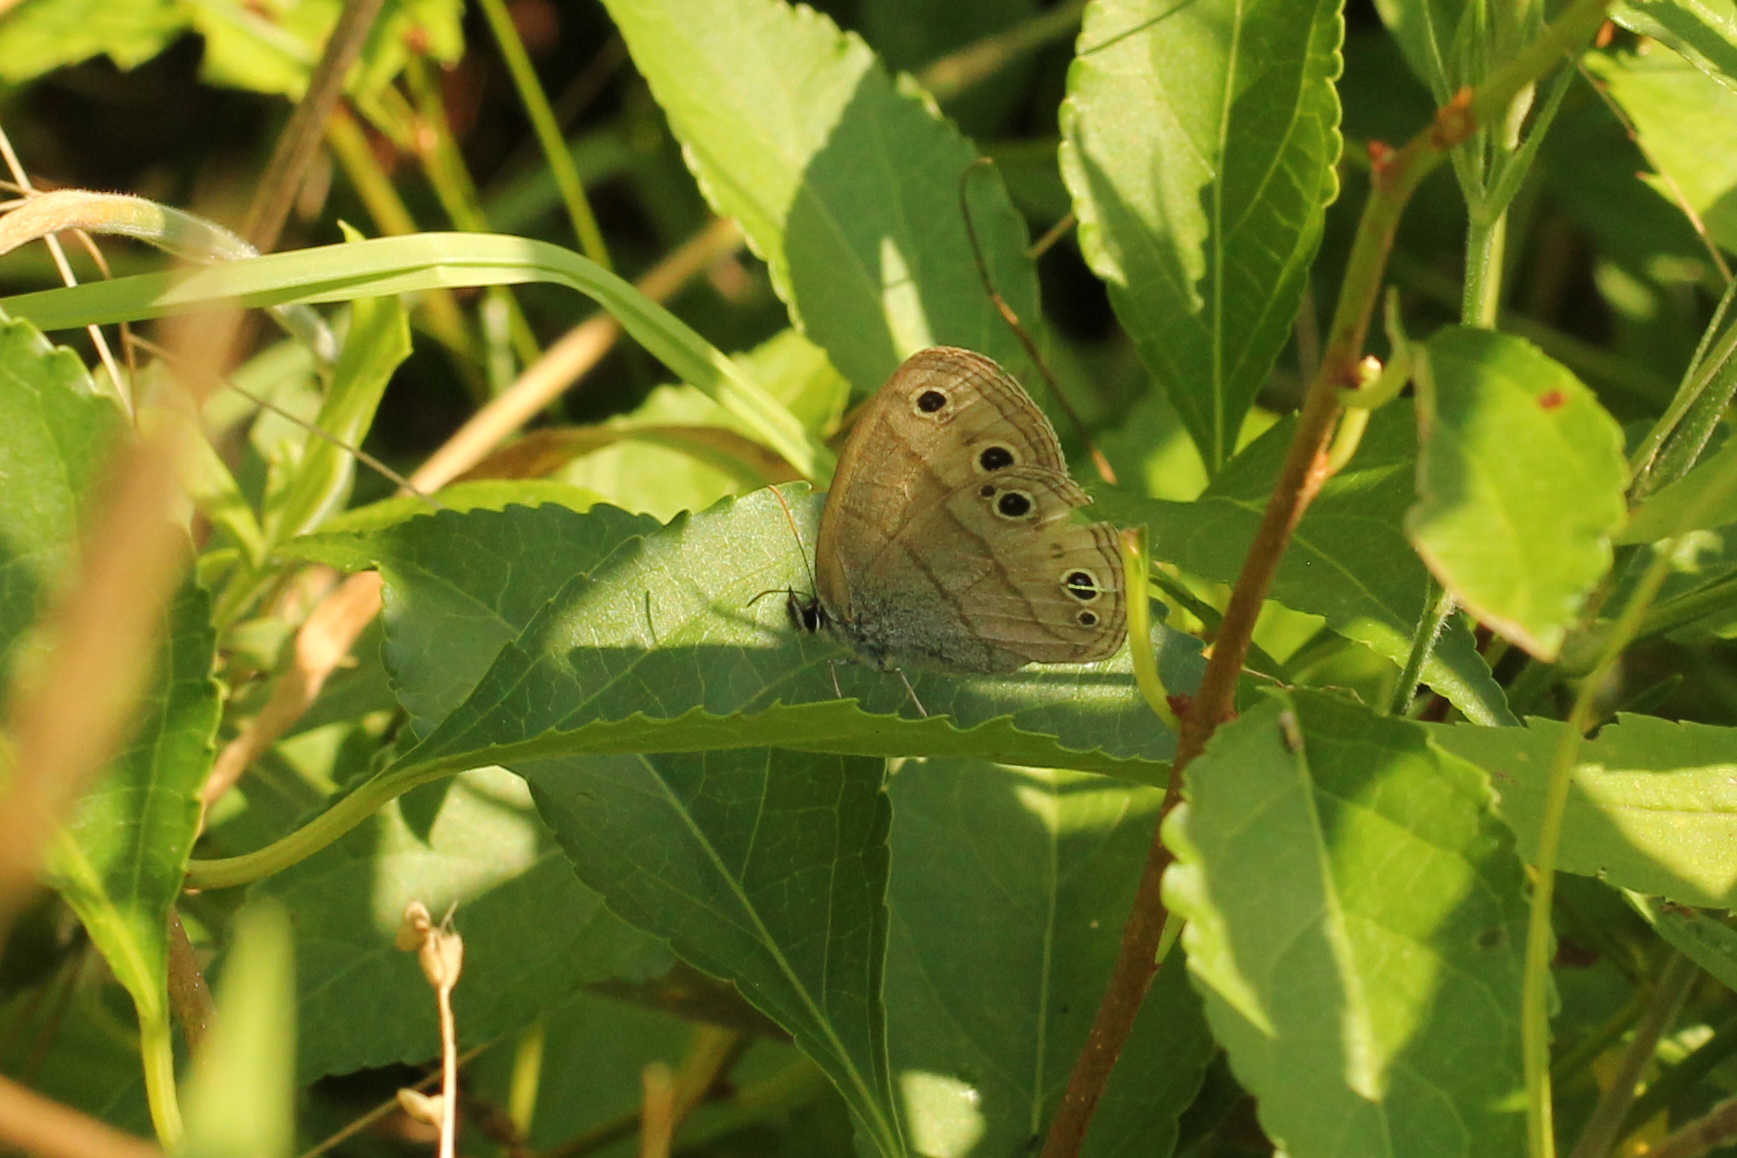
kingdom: Animalia
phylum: Arthropoda
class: Insecta
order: Lepidoptera
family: Nymphalidae
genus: Euptychia
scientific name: Euptychia cymela
